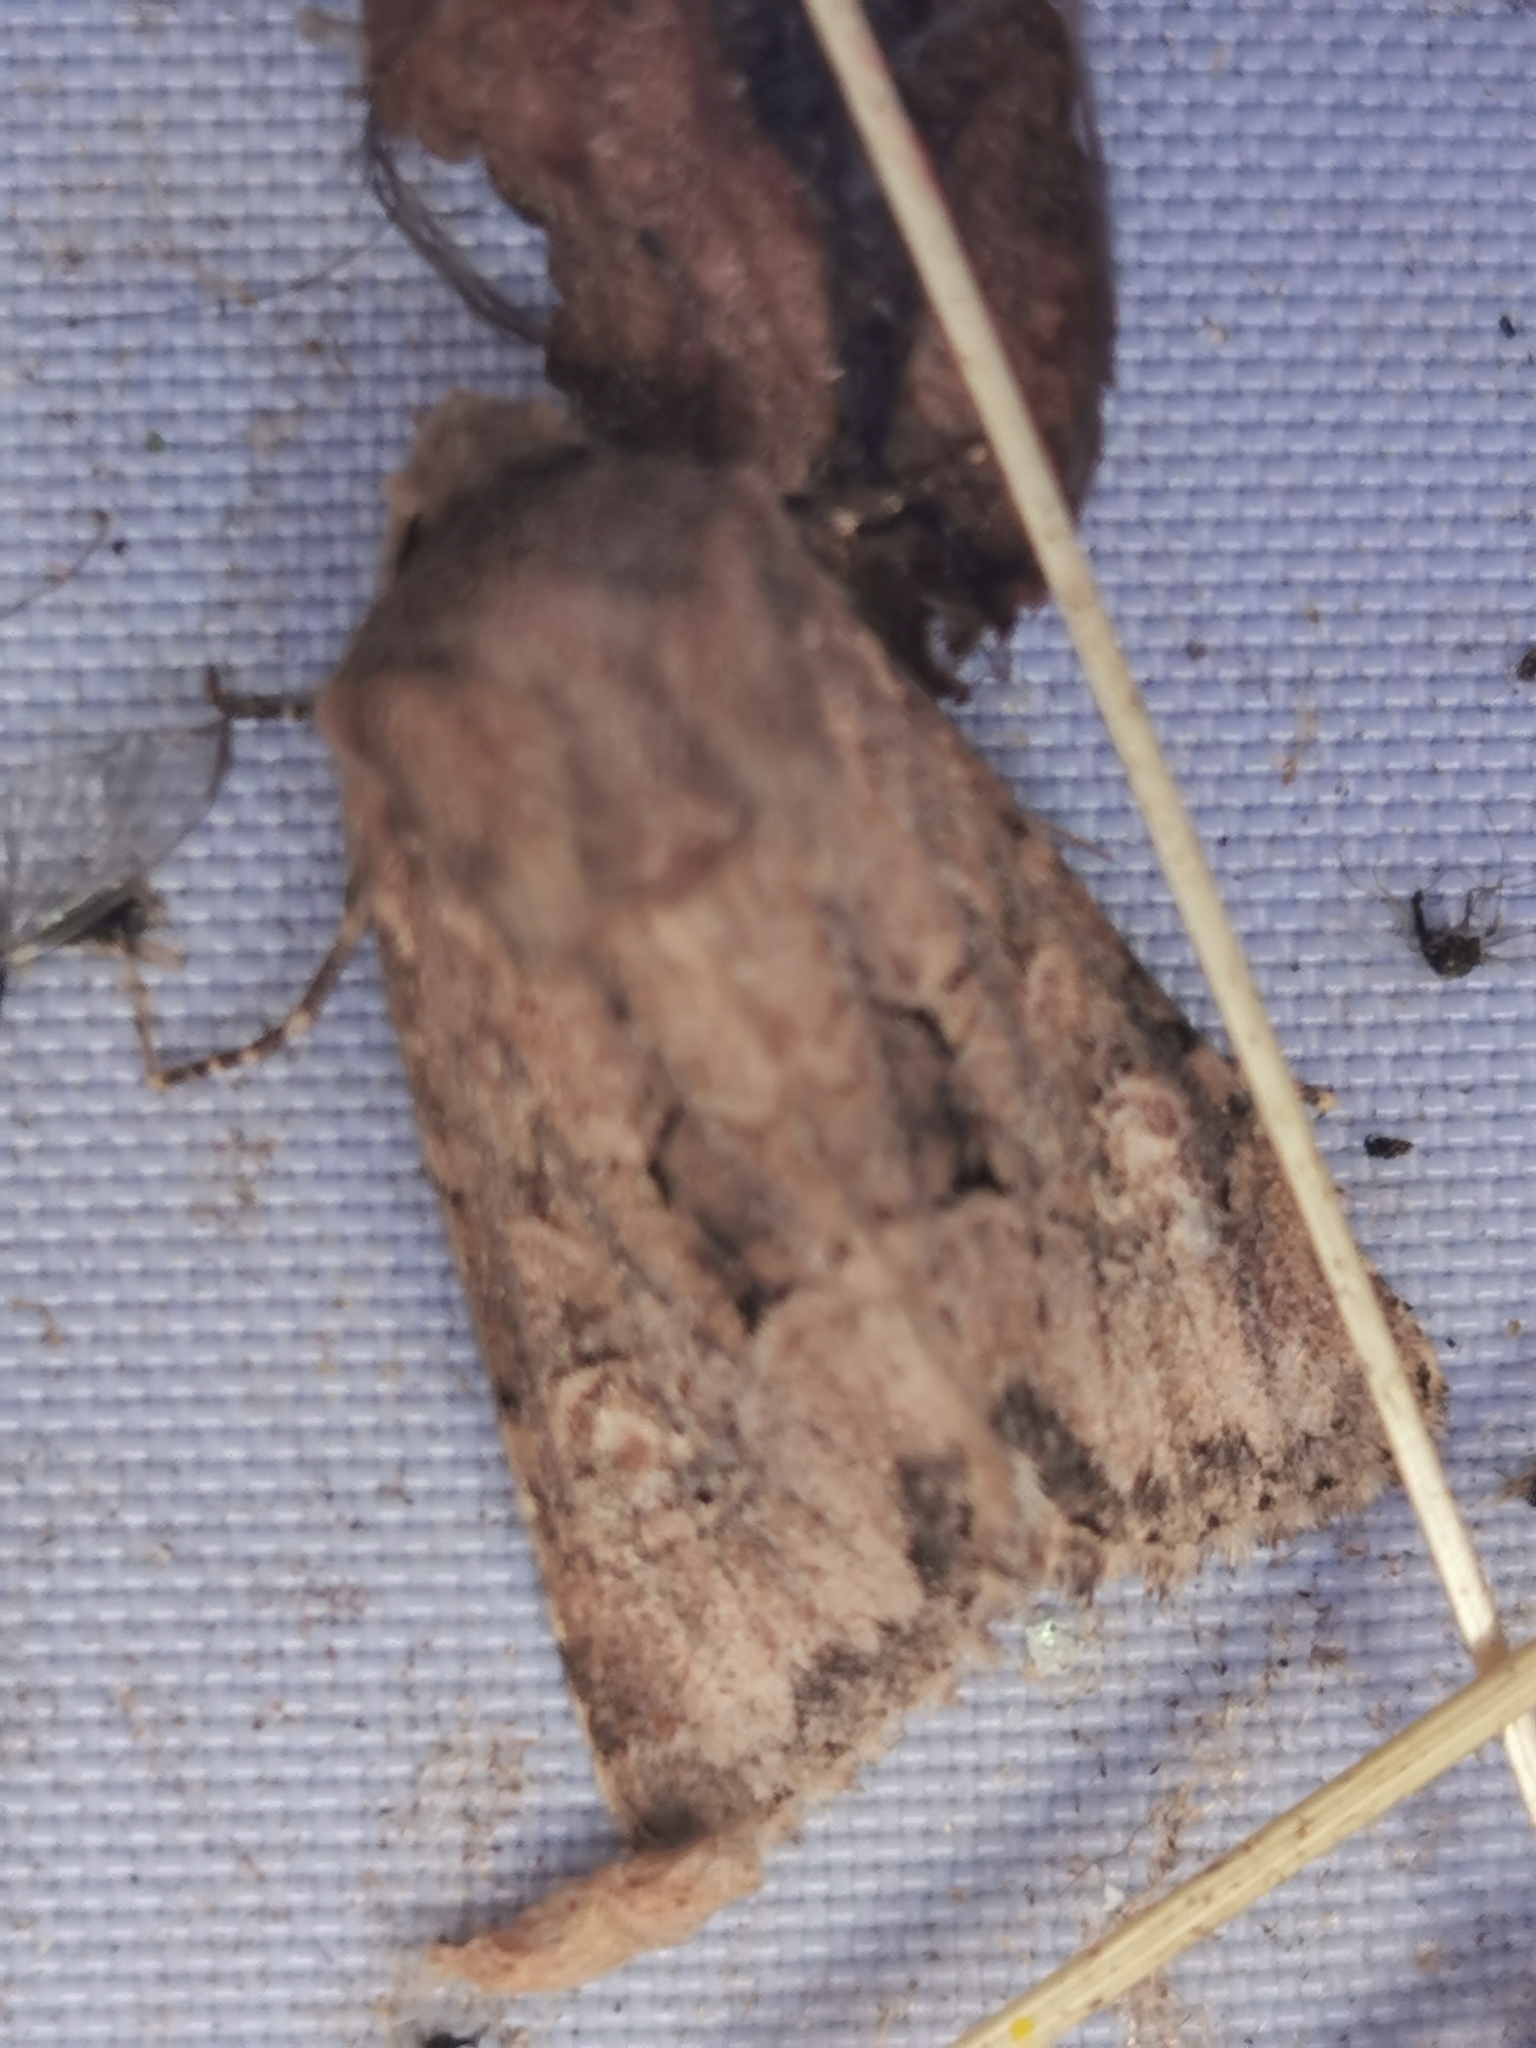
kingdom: Animalia
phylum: Arthropoda
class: Insecta
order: Lepidoptera
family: Noctuidae
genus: Luperina
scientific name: Luperina testacea
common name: Flounced rustic
